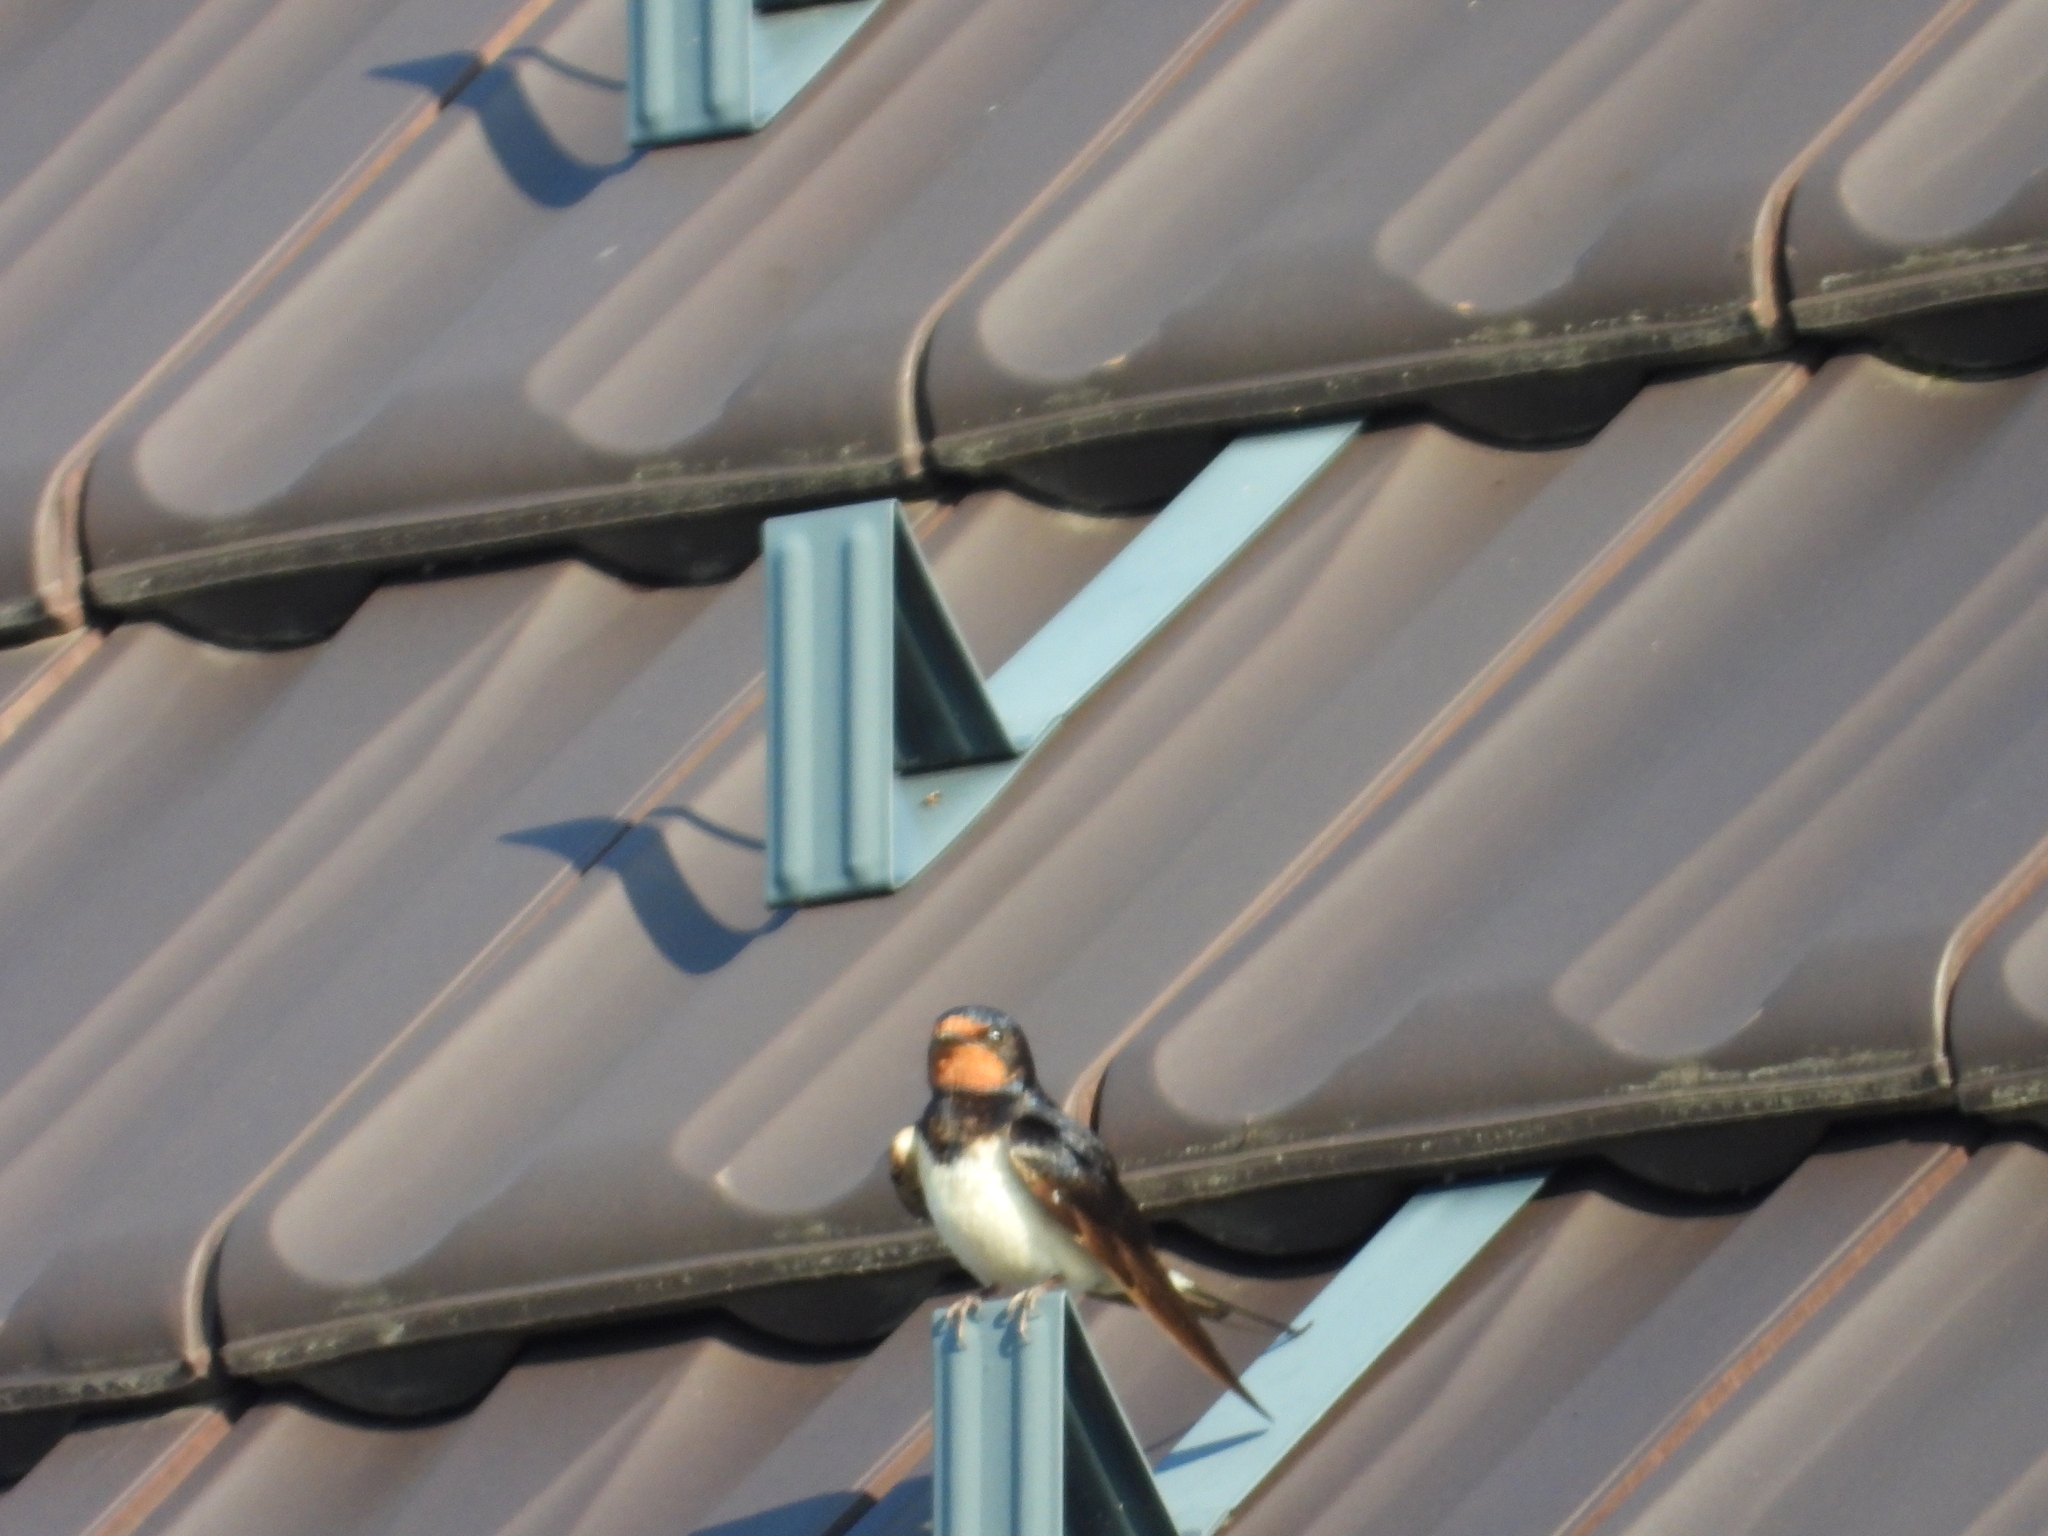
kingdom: Animalia
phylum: Chordata
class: Aves
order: Passeriformes
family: Hirundinidae
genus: Hirundo
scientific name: Hirundo rustica
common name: Barn swallow
